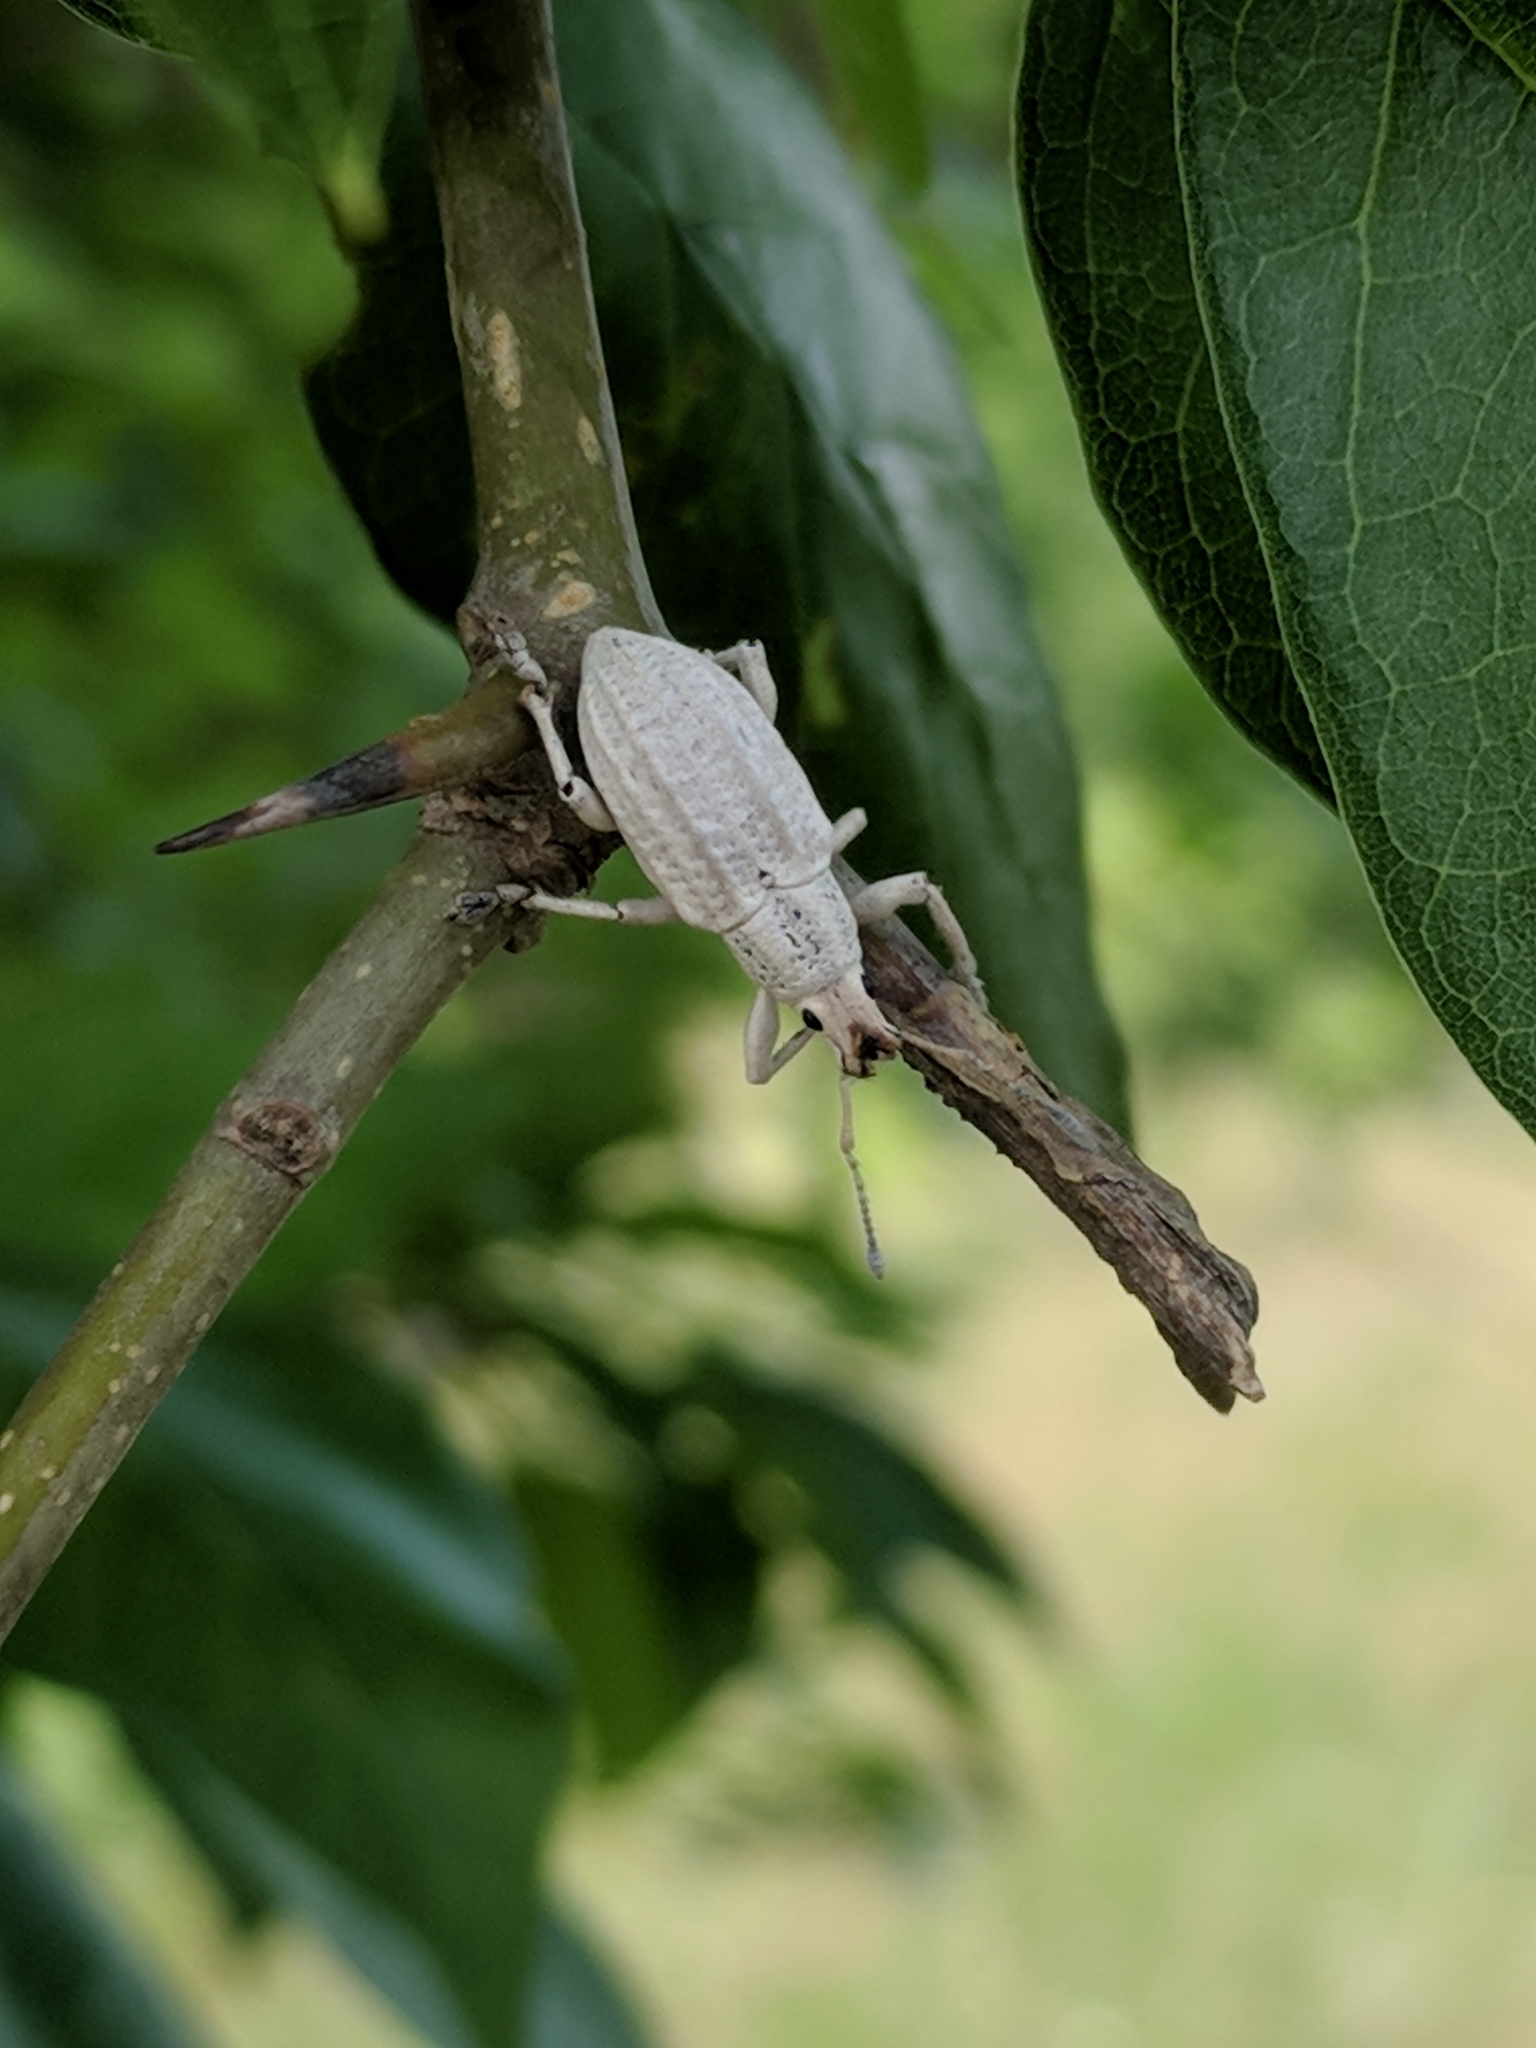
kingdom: Animalia
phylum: Arthropoda
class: Insecta
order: Coleoptera
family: Curculionidae
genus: Compsus
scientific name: Compsus auricephalus
